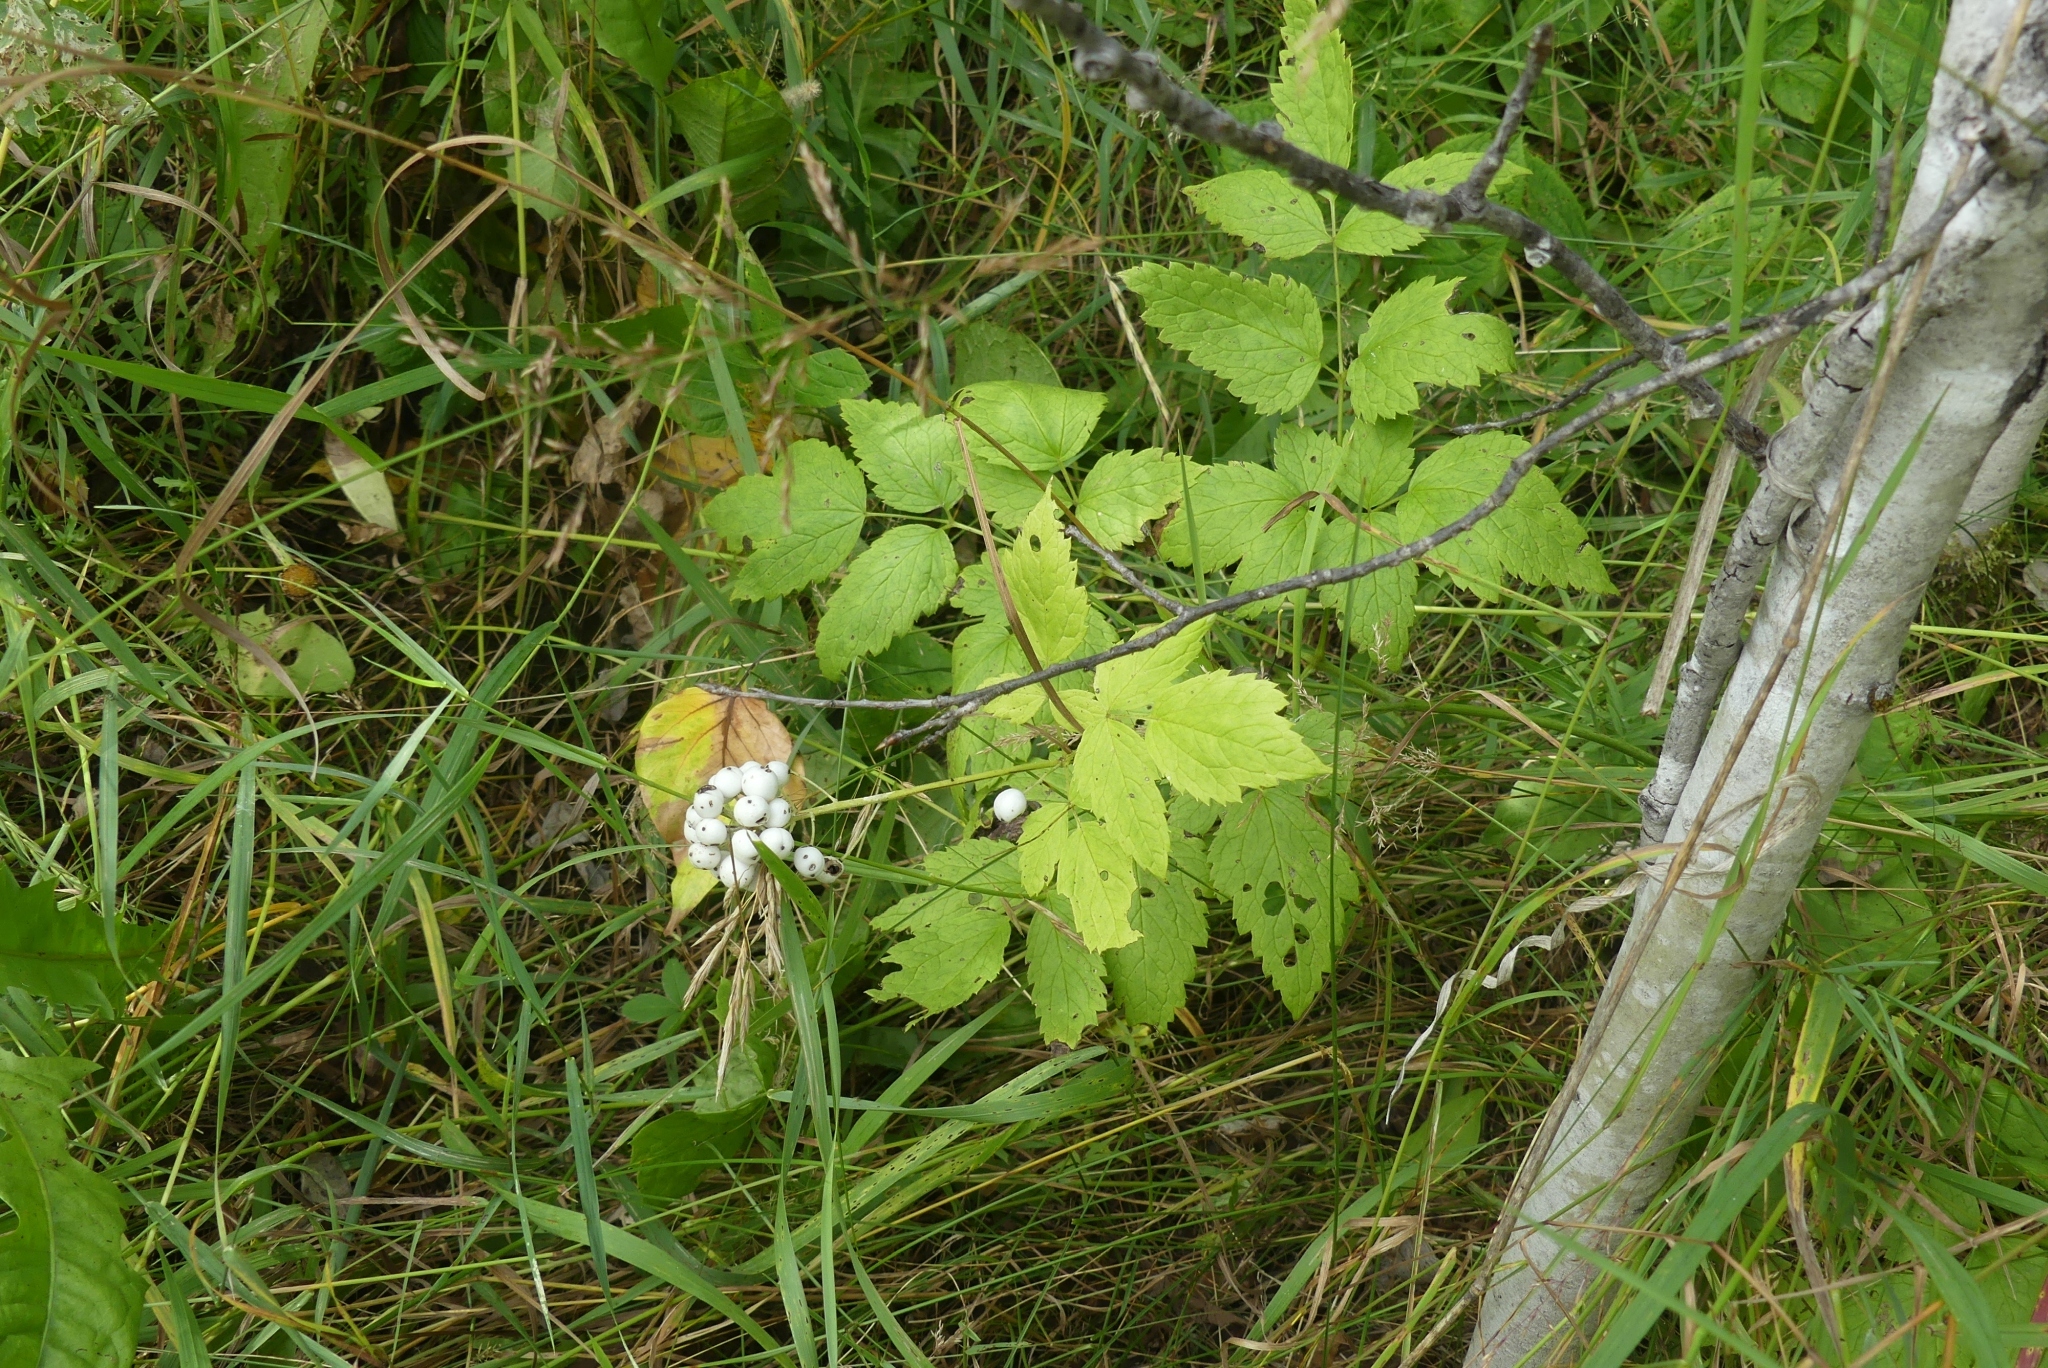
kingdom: Plantae
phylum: Tracheophyta
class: Magnoliopsida
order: Ranunculales
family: Ranunculaceae
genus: Actaea
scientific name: Actaea rubra
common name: Red baneberry
